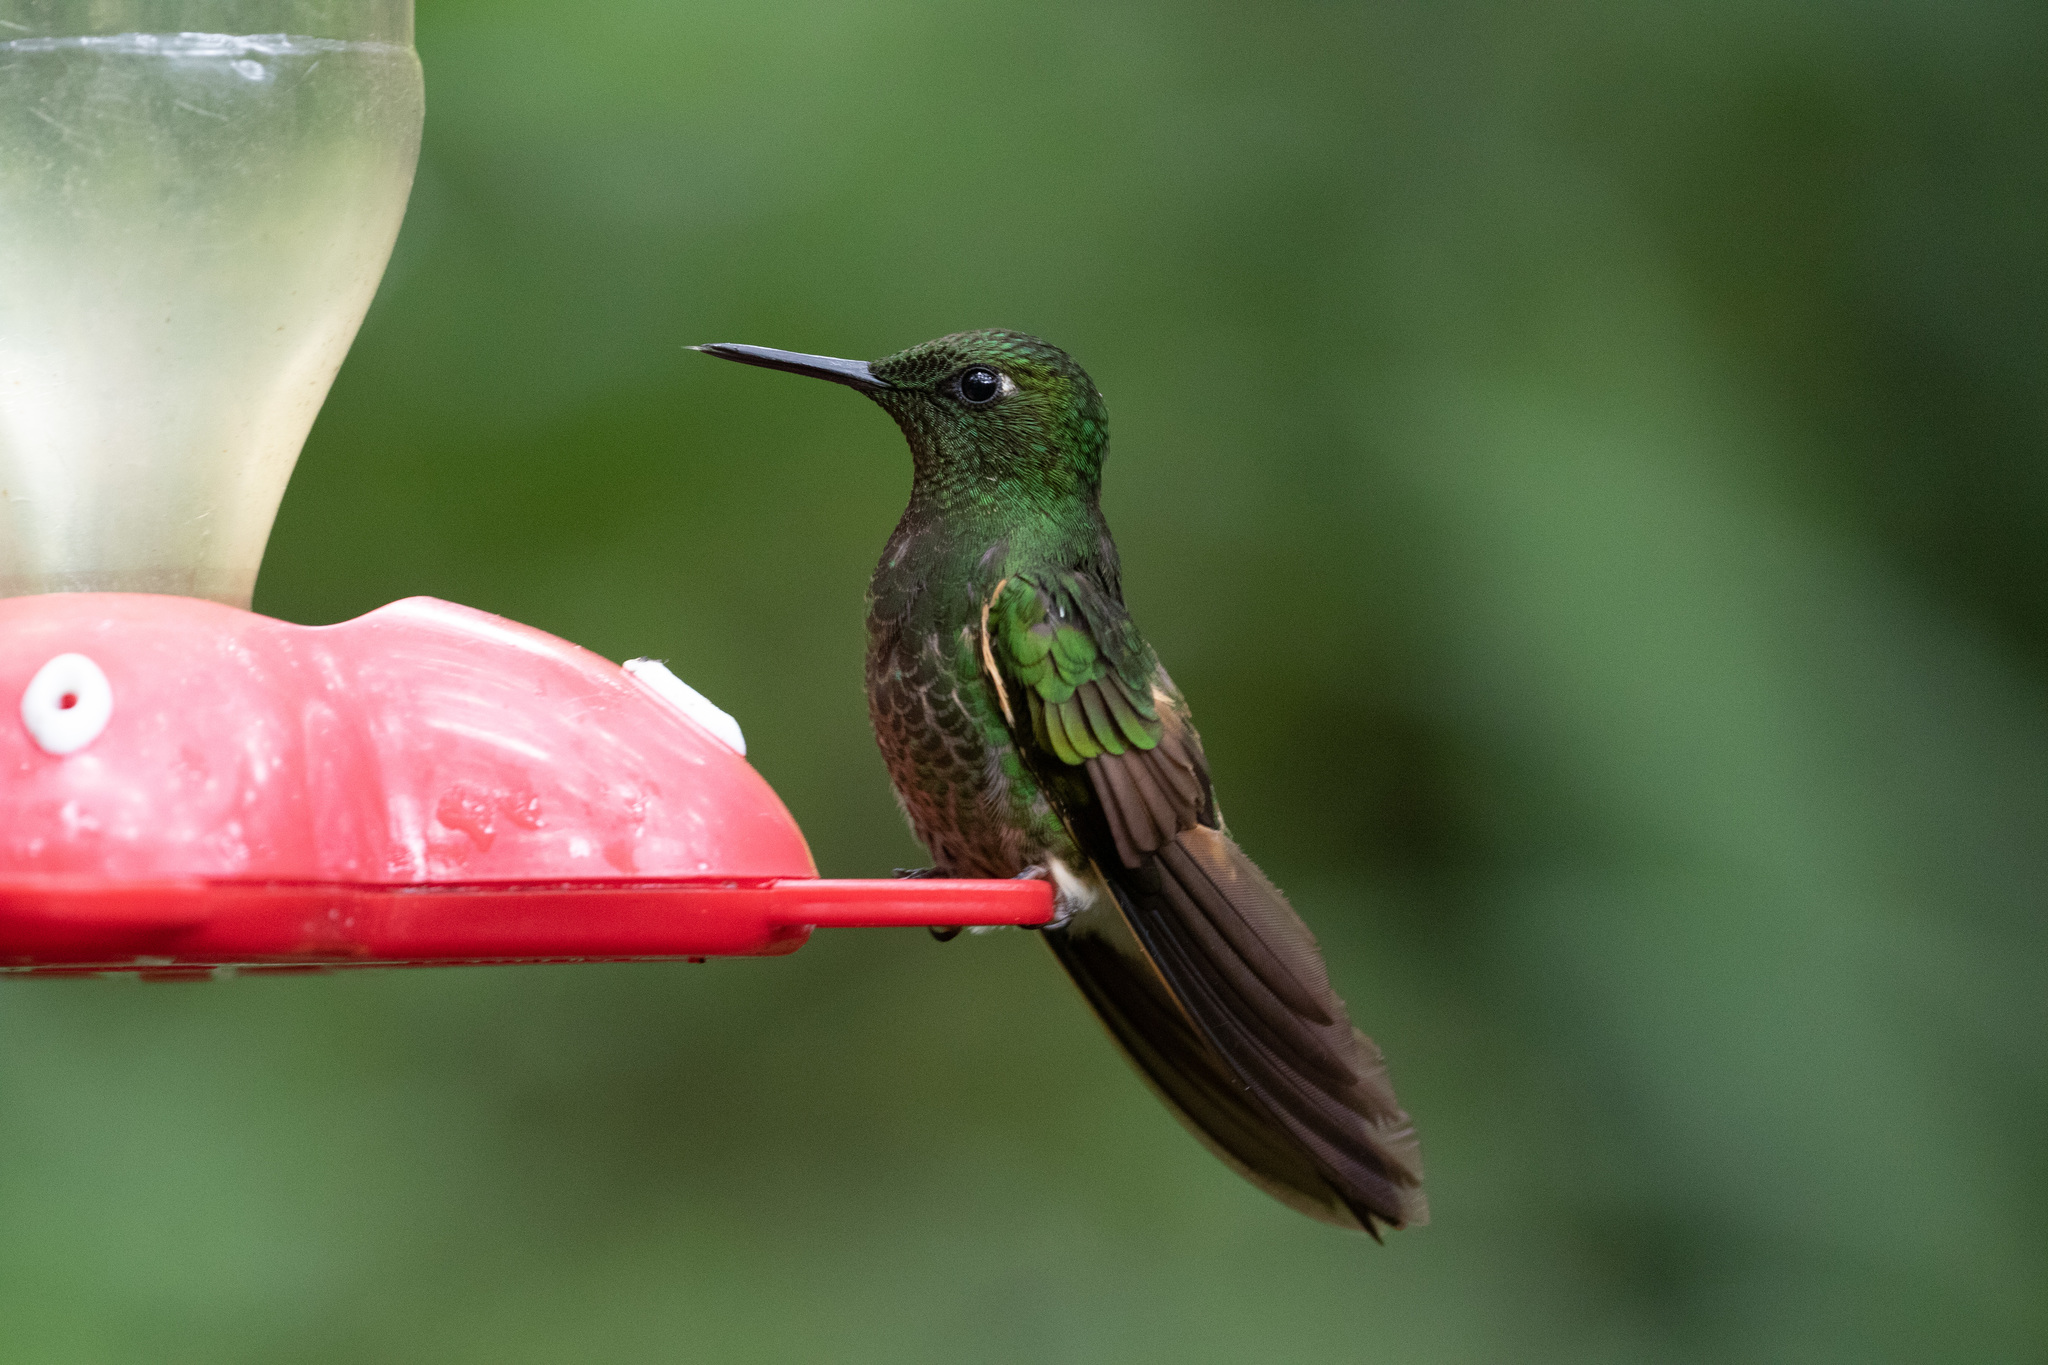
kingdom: Animalia
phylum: Chordata
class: Aves
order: Apodiformes
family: Trochilidae
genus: Boissonneaua
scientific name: Boissonneaua flavescens
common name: Buff-tailed coronet
